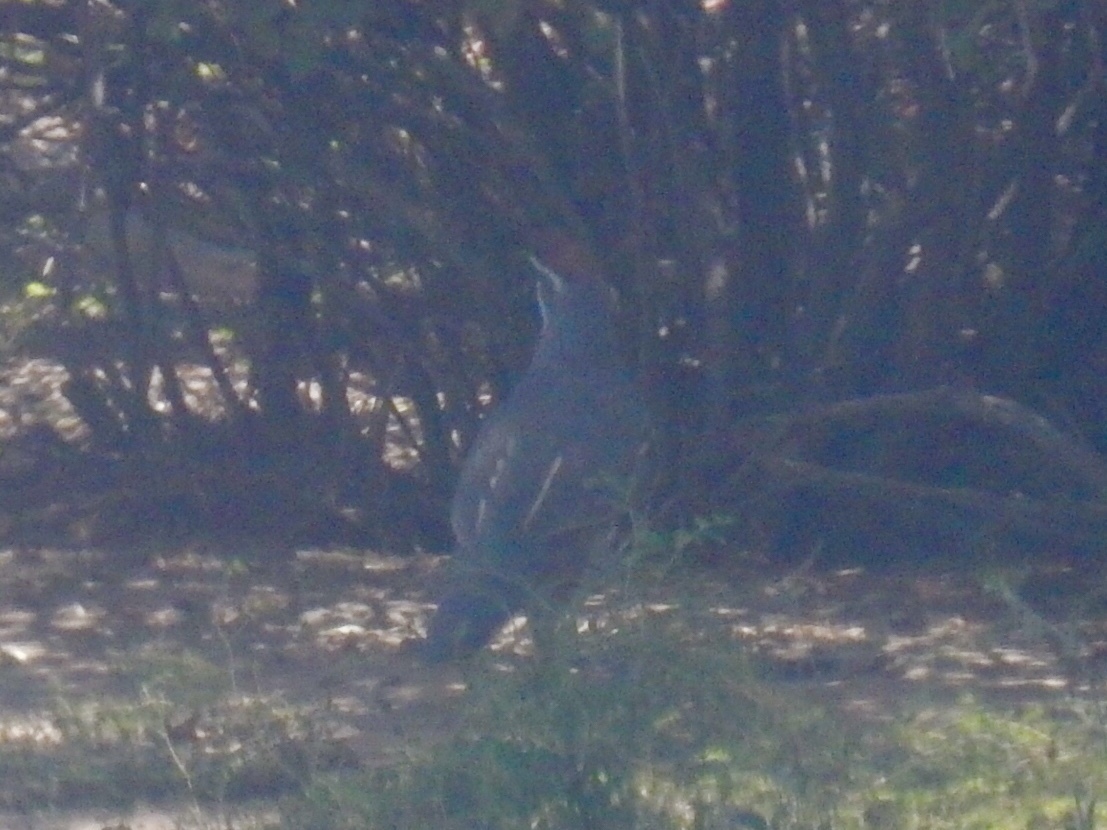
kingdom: Animalia
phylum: Chordata
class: Aves
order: Galliformes
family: Odontophoridae
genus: Callipepla
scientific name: Callipepla gambelii
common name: Gambel's quail
